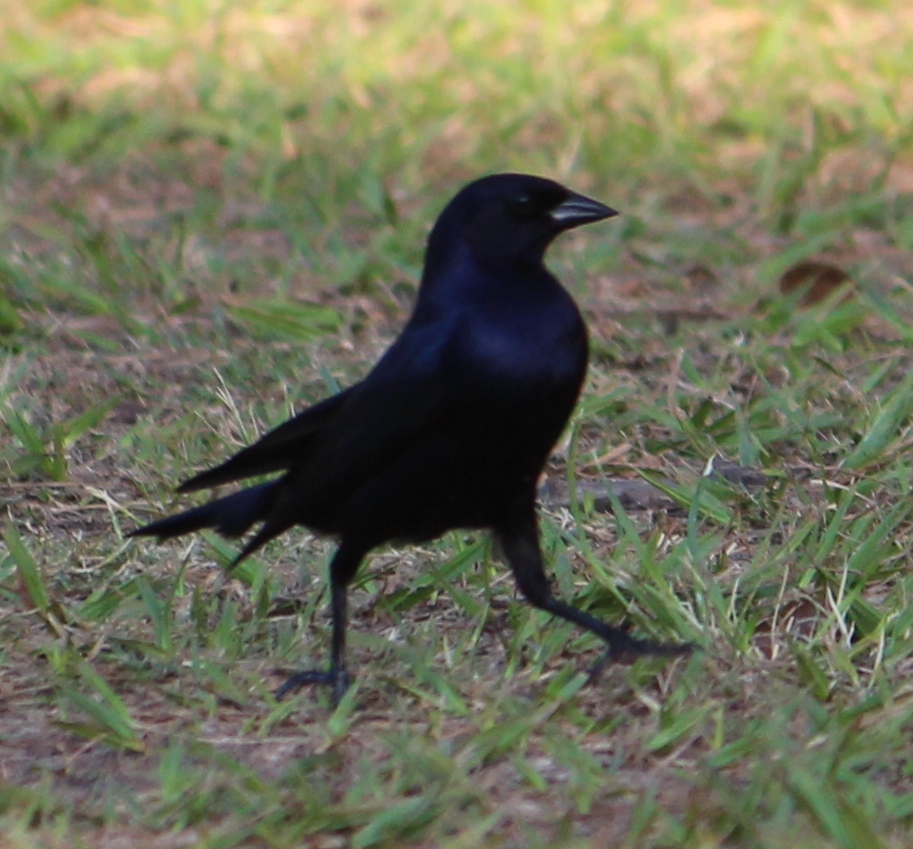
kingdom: Animalia
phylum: Chordata
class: Aves
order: Passeriformes
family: Icteridae
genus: Molothrus
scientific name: Molothrus bonariensis
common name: Shiny cowbird
